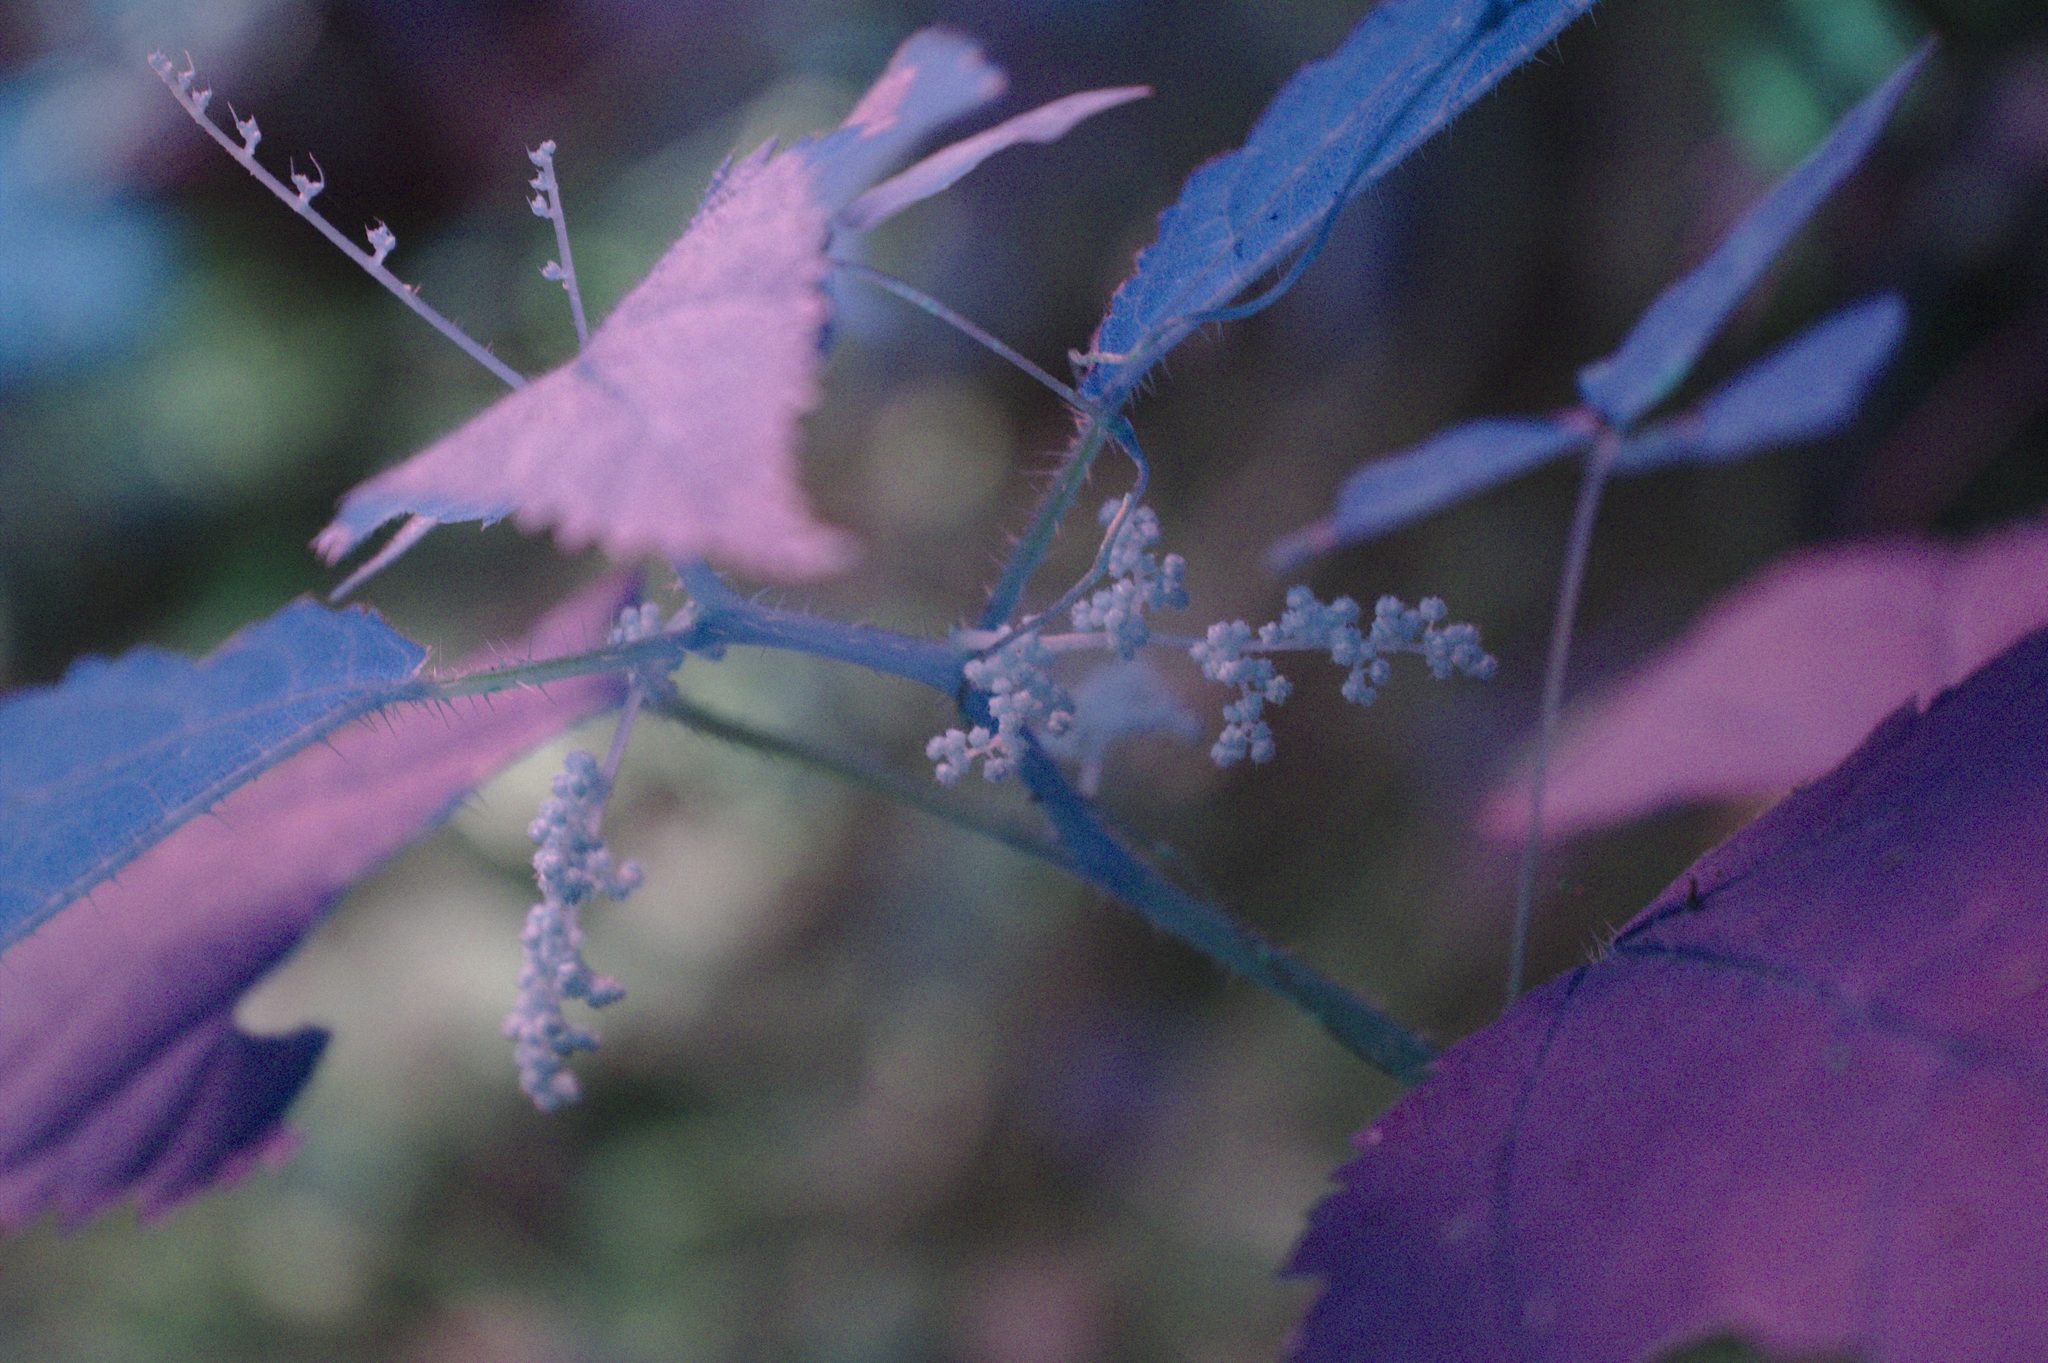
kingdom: Plantae
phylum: Tracheophyta
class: Magnoliopsida
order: Rosales
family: Urticaceae
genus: Laportea
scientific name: Laportea canadensis
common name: Canada nettle
